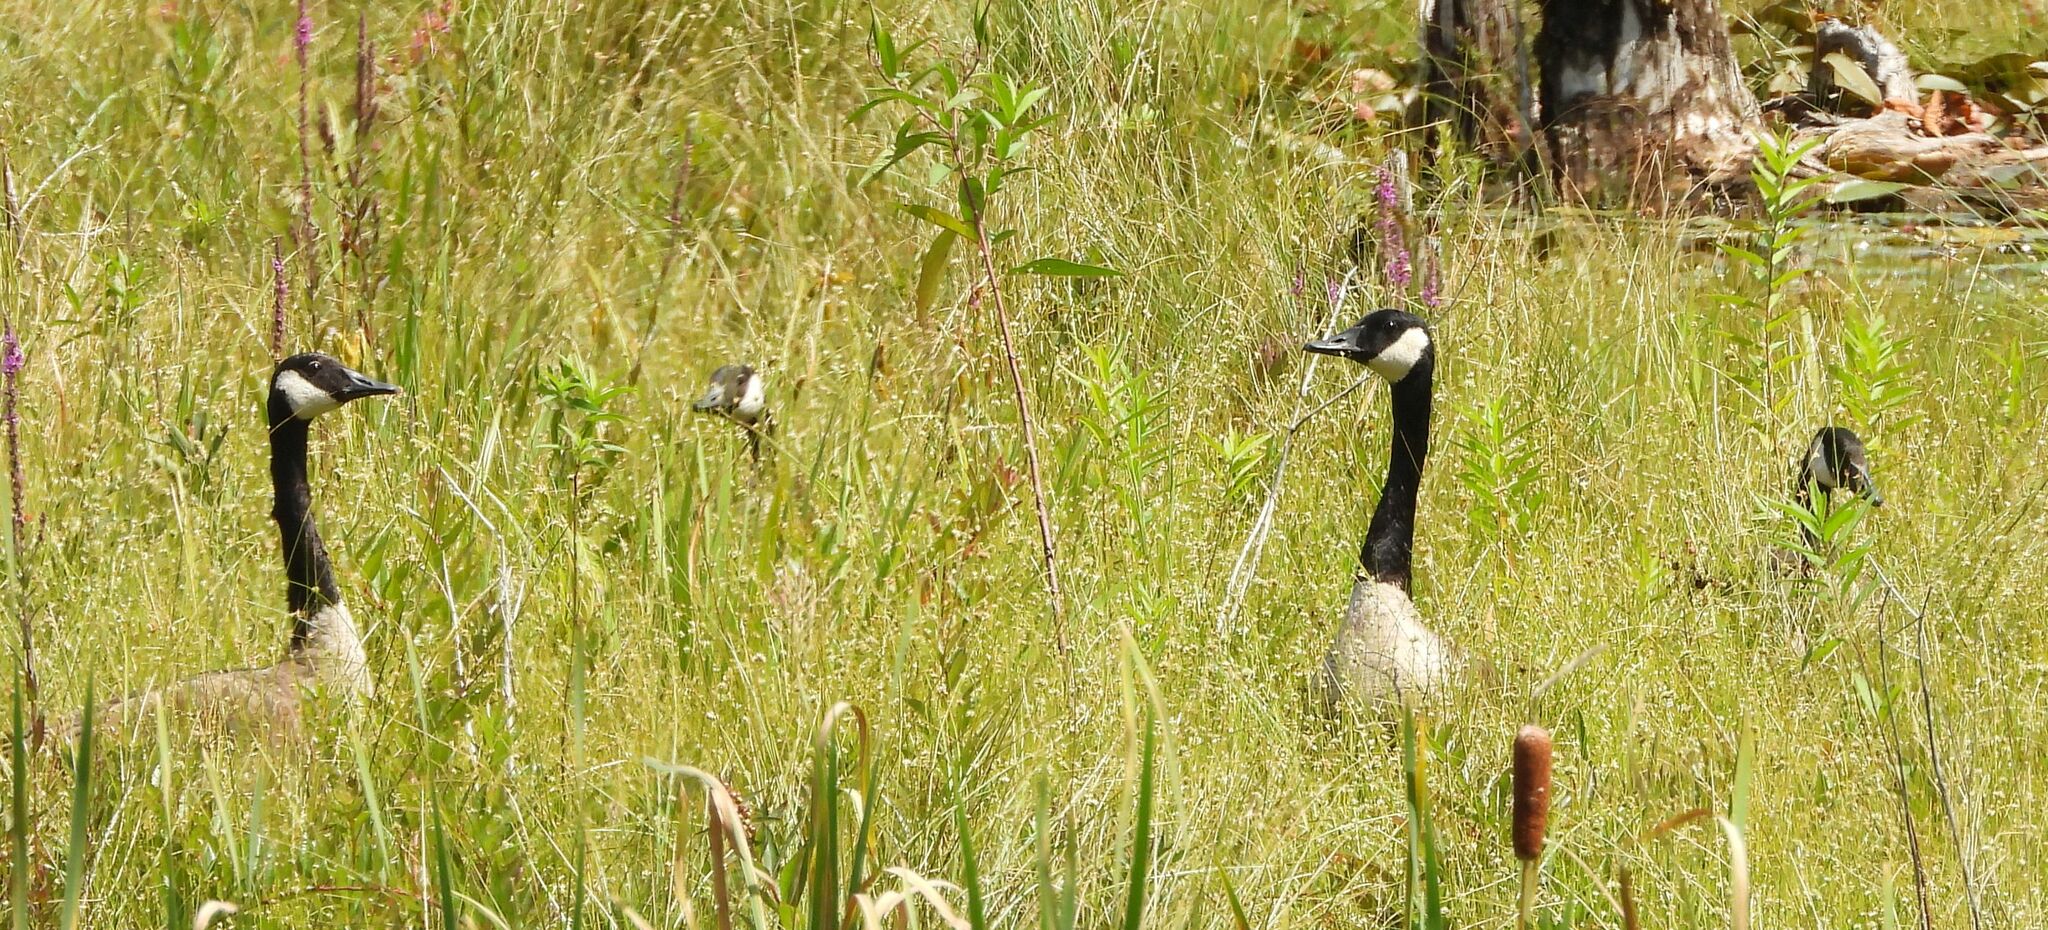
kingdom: Animalia
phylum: Chordata
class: Aves
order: Anseriformes
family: Anatidae
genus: Branta
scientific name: Branta canadensis
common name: Canada goose
